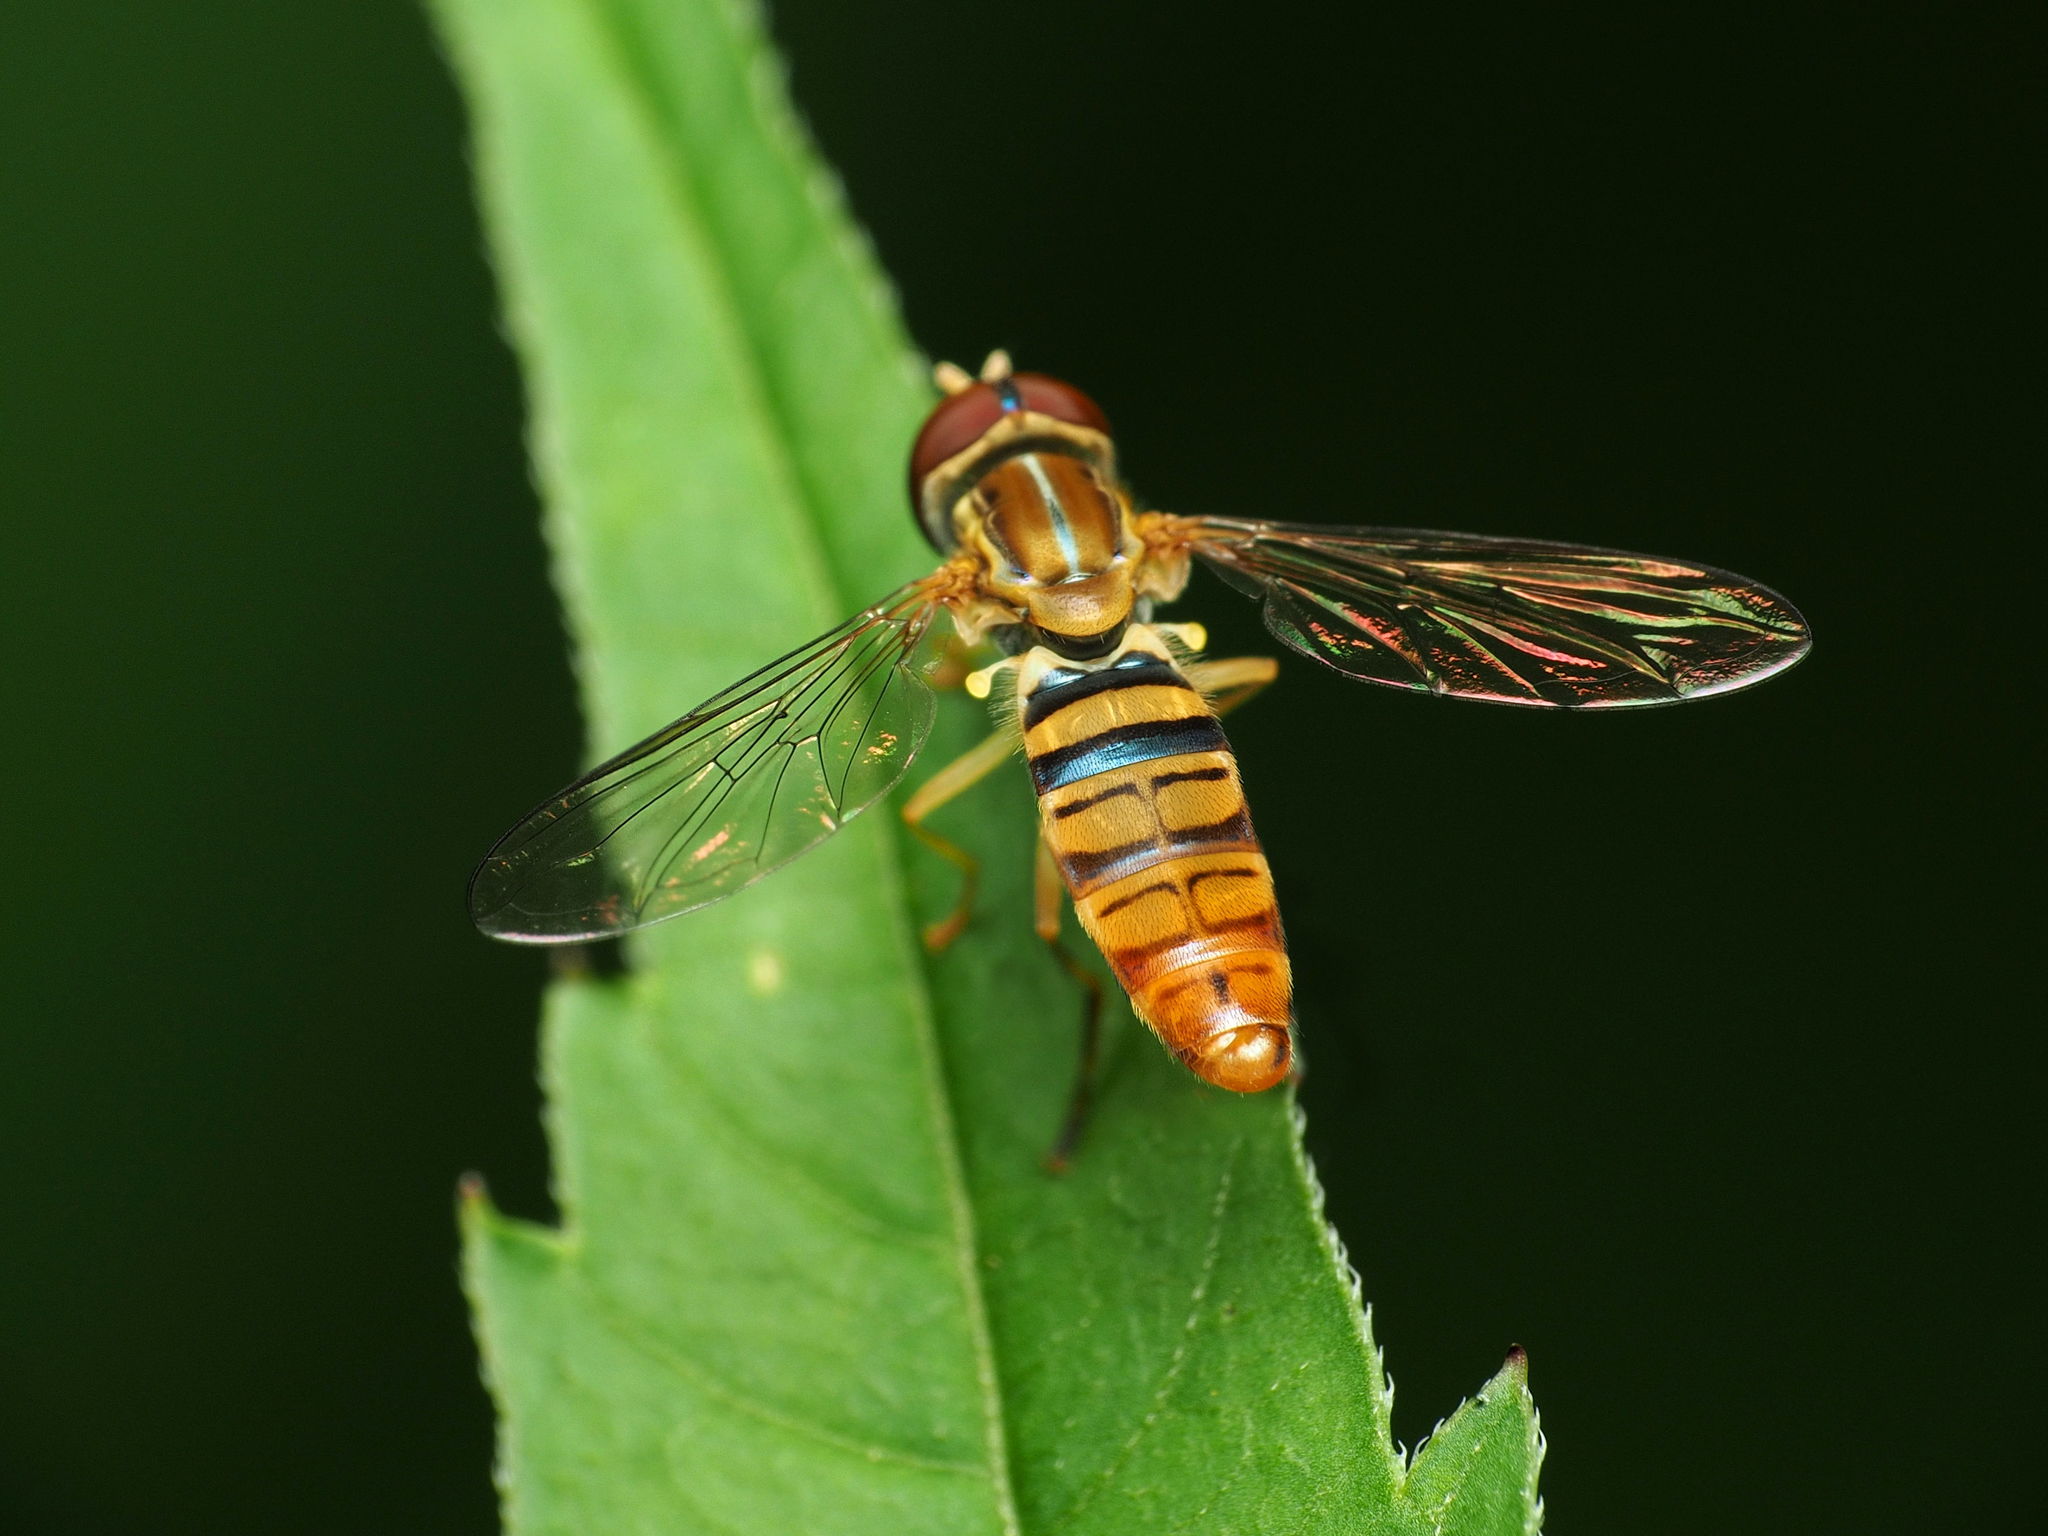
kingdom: Animalia
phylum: Arthropoda
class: Insecta
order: Diptera
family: Syrphidae
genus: Toxomerus
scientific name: Toxomerus politus
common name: Maize calligrapher
